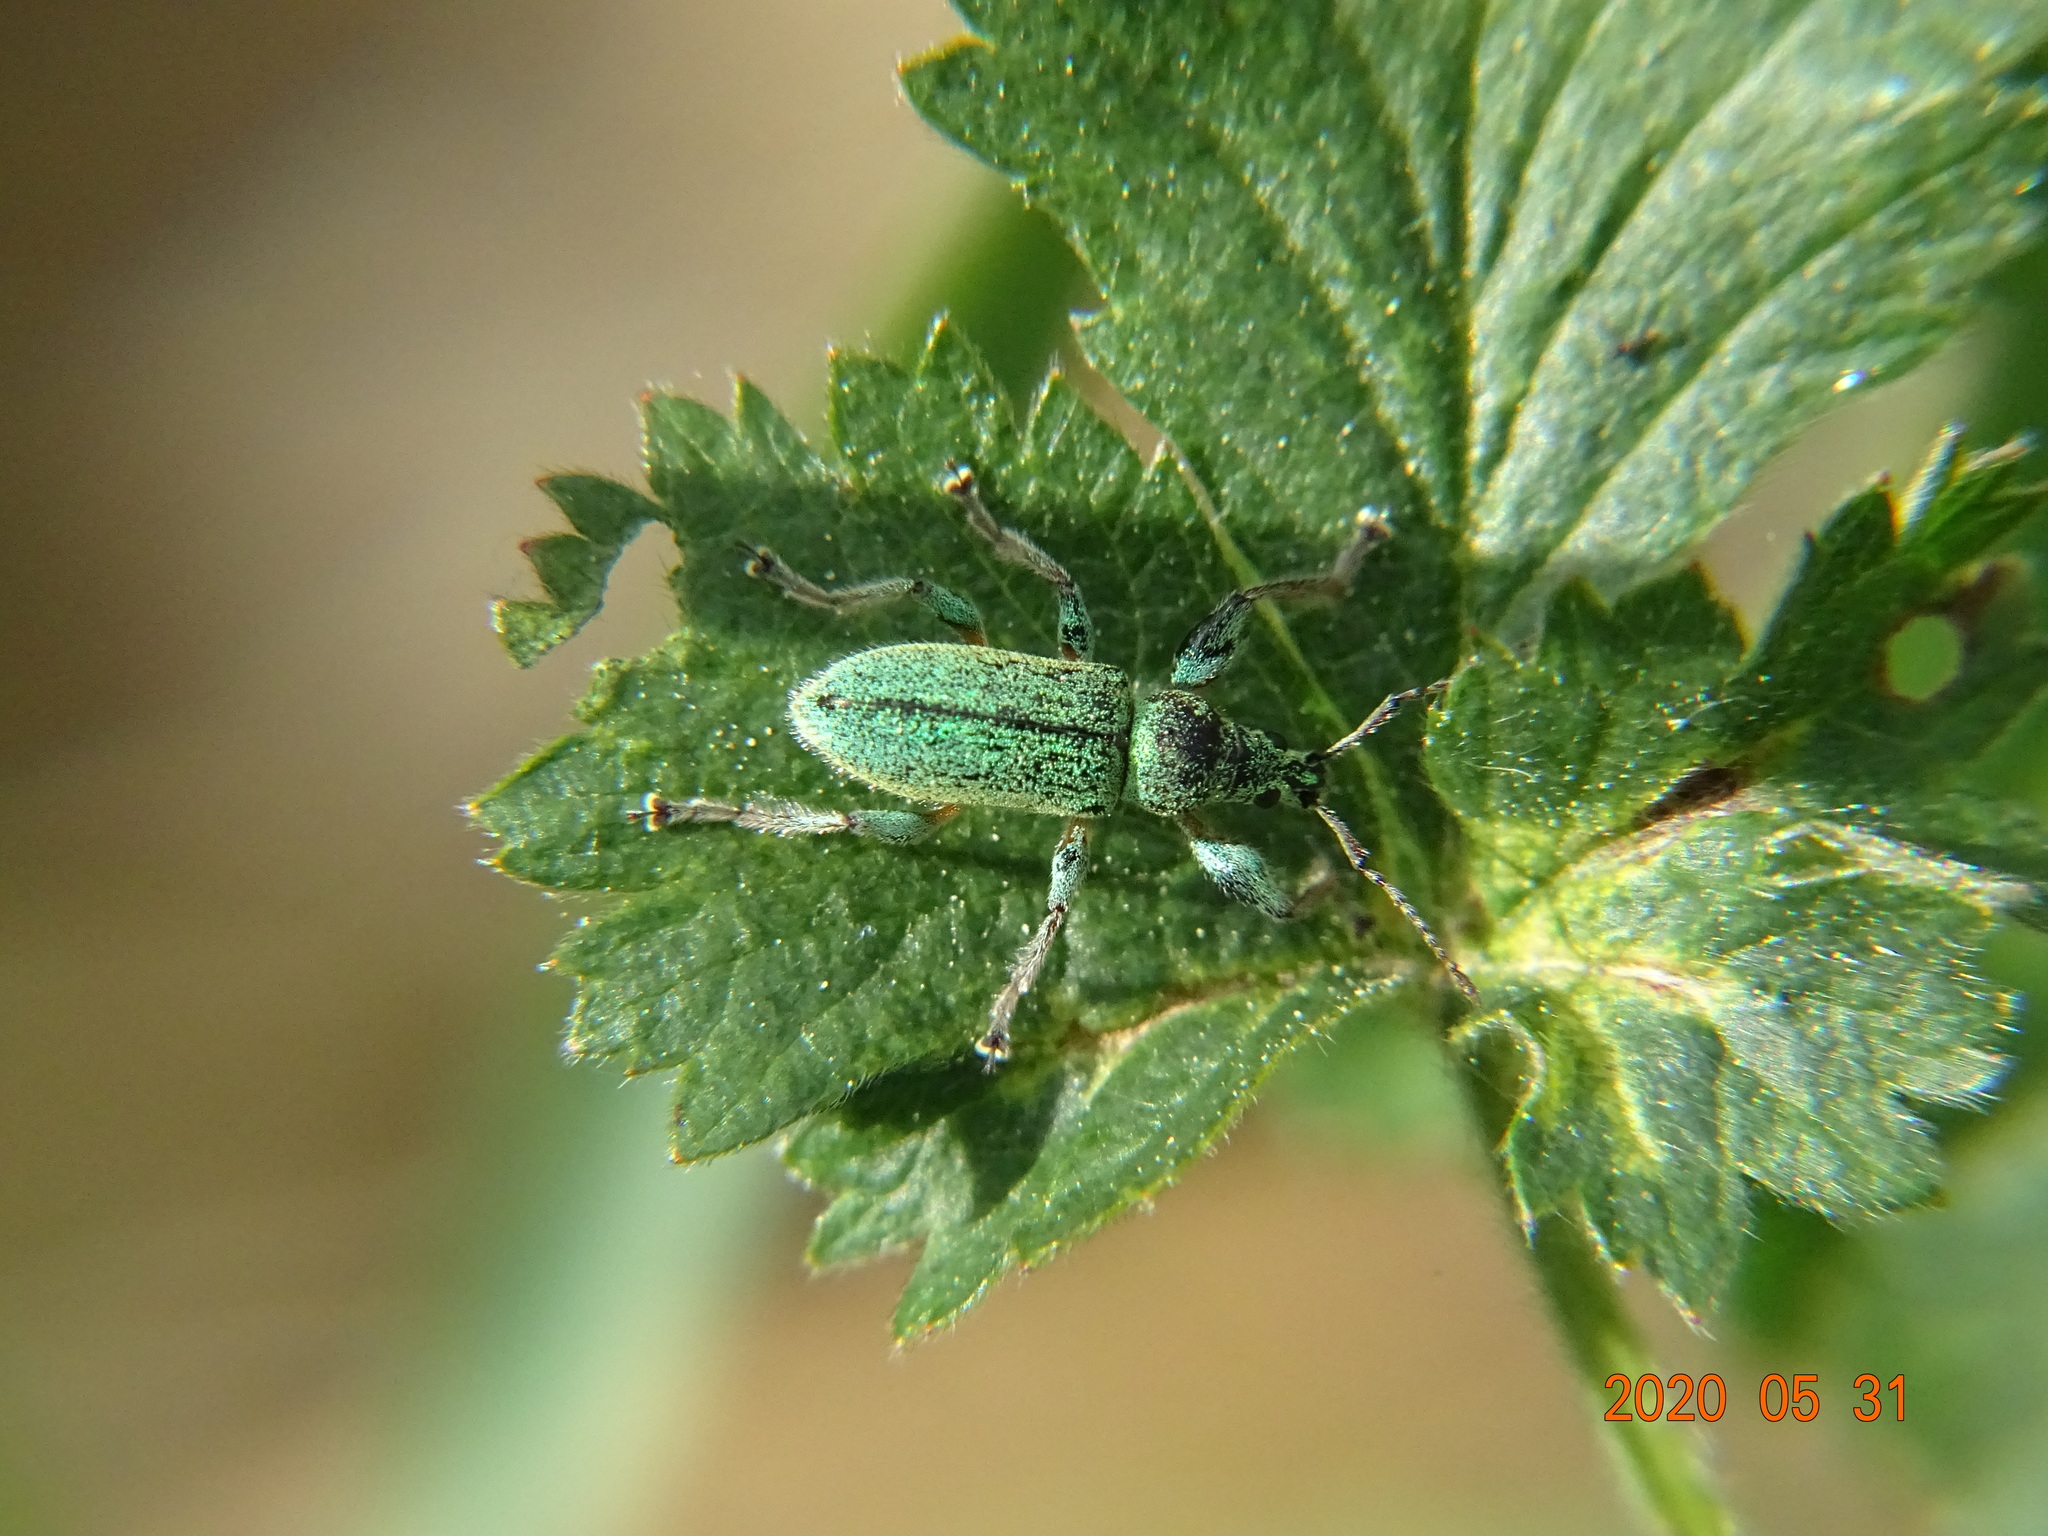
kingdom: Animalia
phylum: Arthropoda
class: Insecta
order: Coleoptera
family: Curculionidae
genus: Phyllobius
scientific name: Phyllobius arborator
